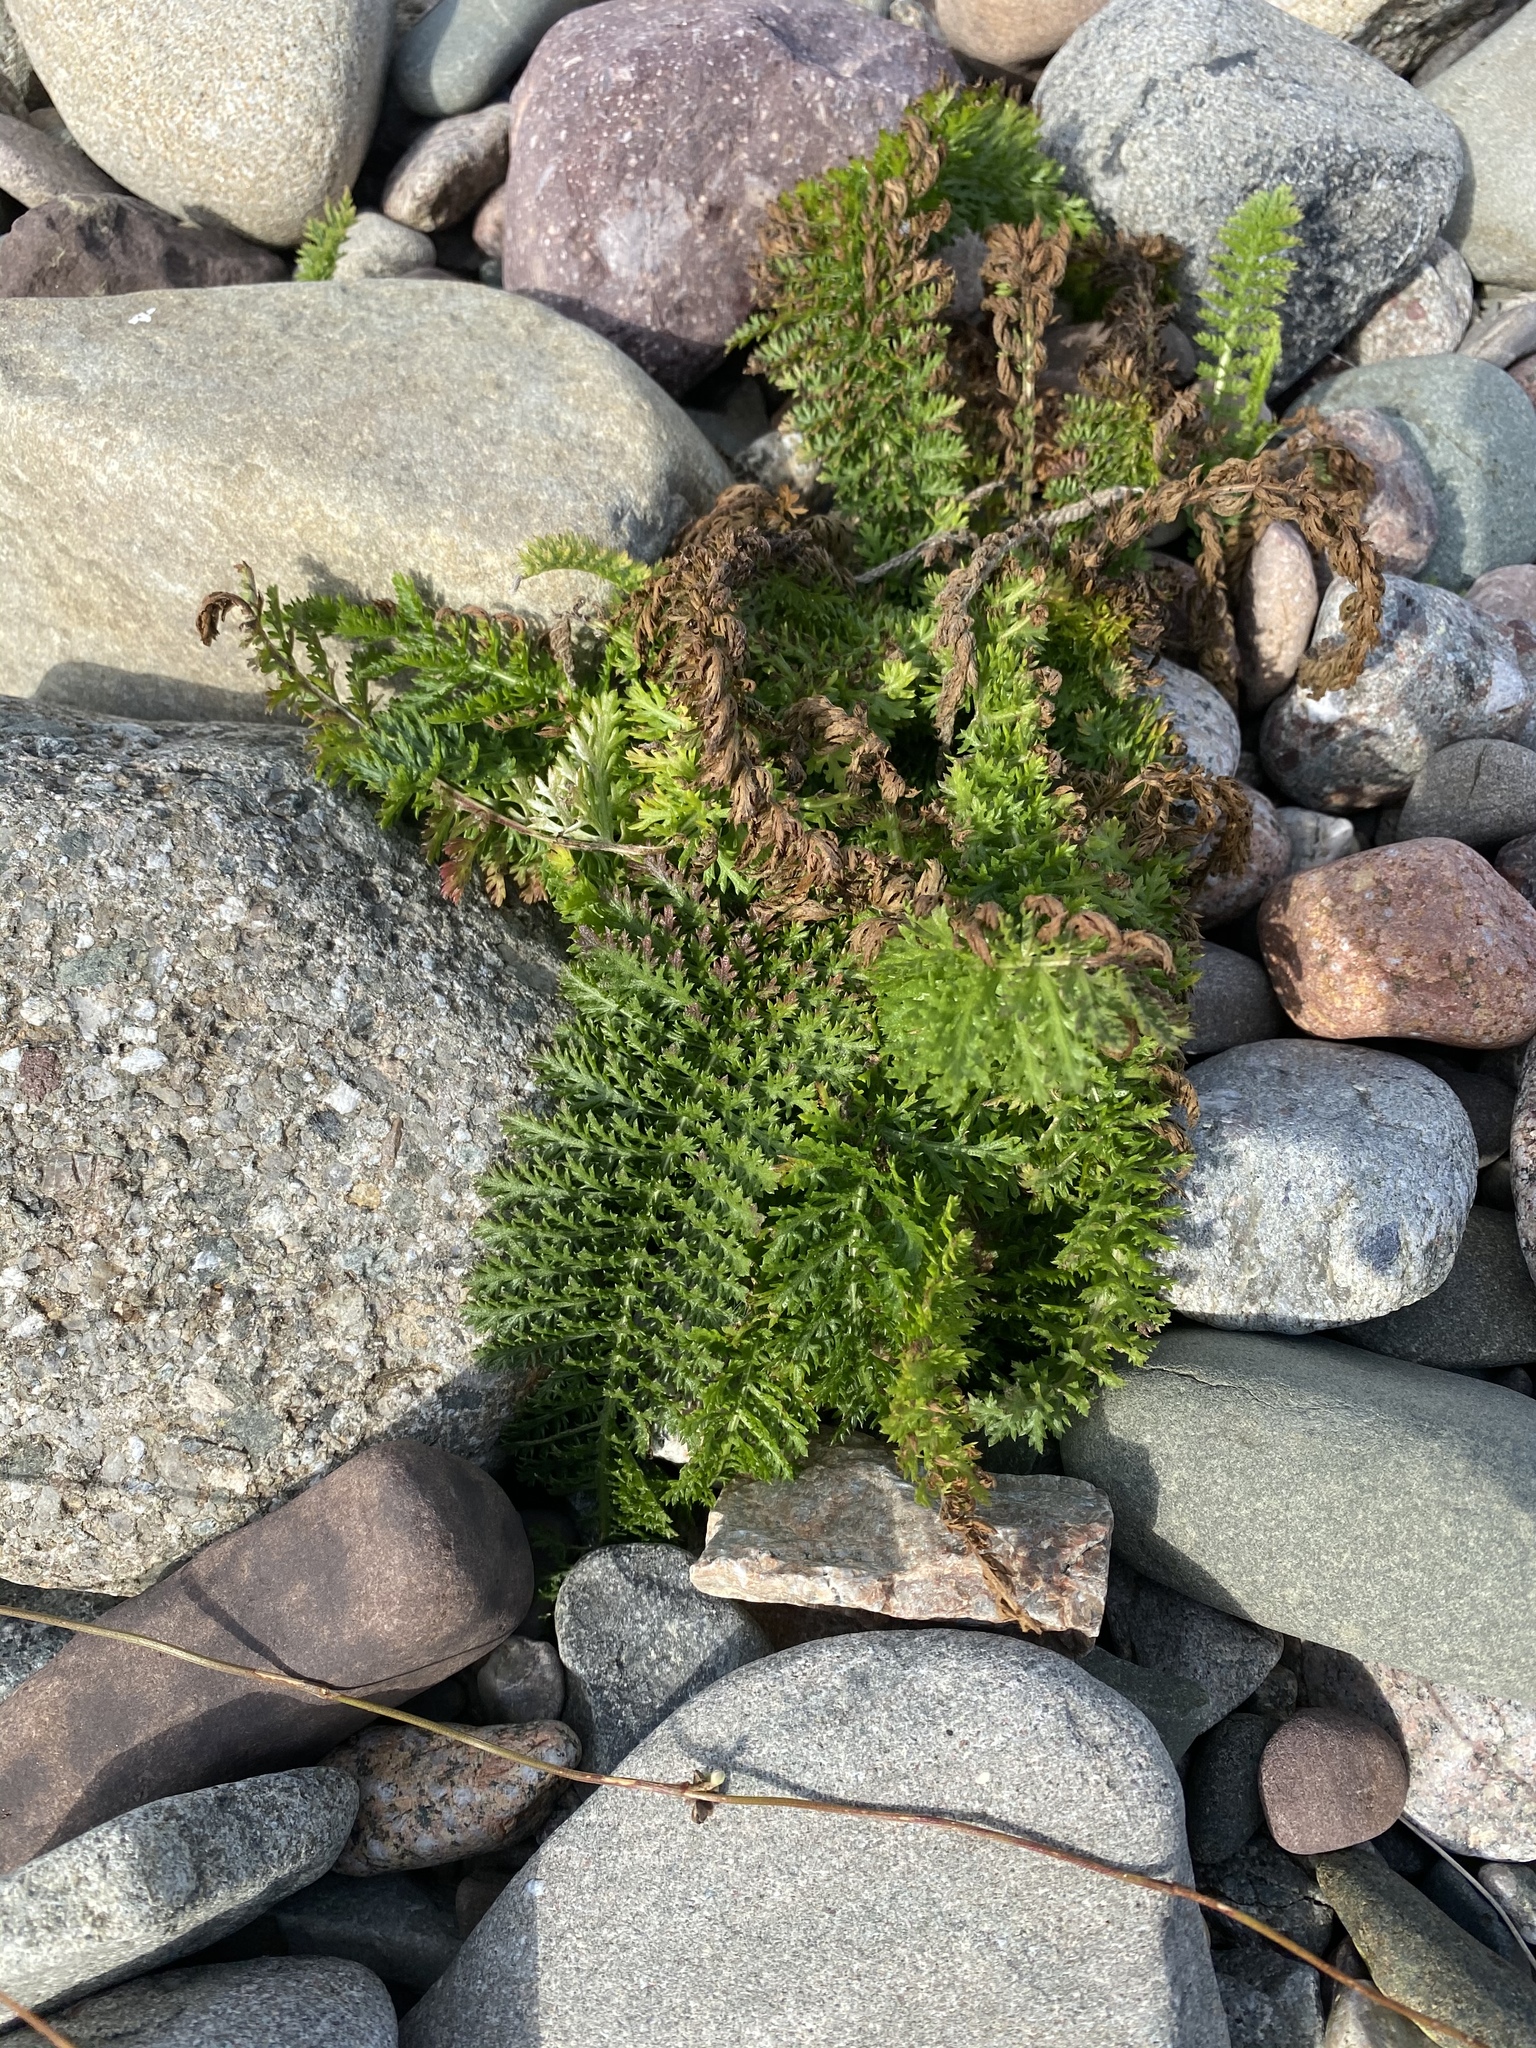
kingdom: Plantae
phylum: Tracheophyta
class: Magnoliopsida
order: Asterales
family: Asteraceae
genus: Achillea
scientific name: Achillea millefolium
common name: Yarrow
